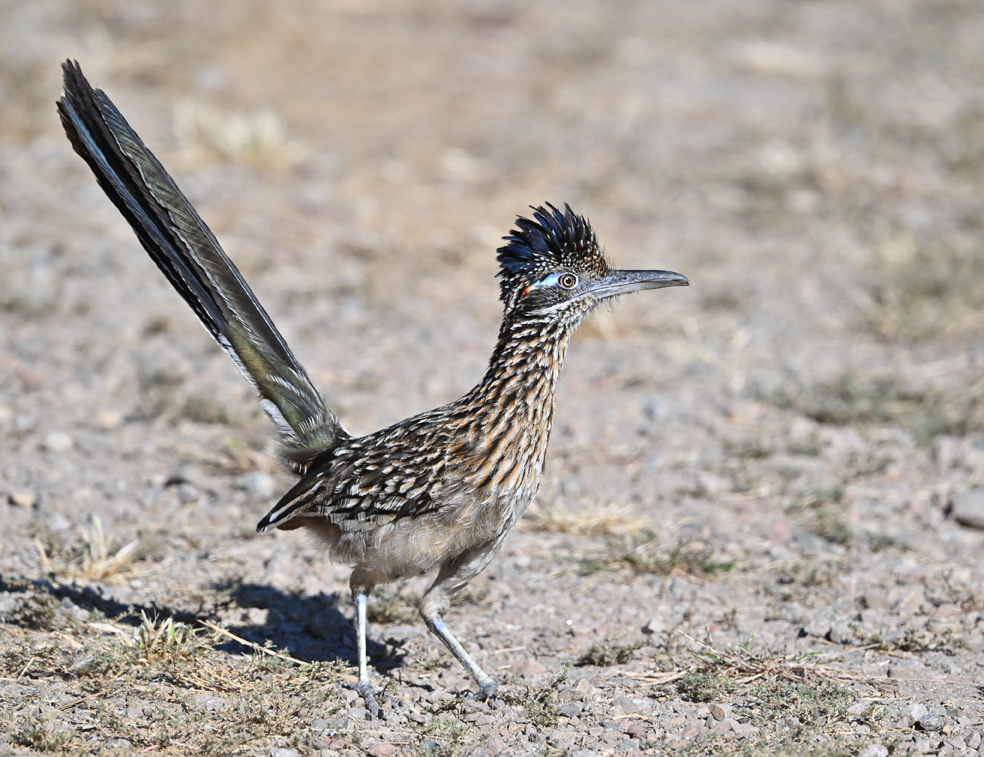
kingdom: Animalia
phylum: Chordata
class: Aves
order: Cuculiformes
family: Cuculidae
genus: Geococcyx
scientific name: Geococcyx californianus
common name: Greater roadrunner
